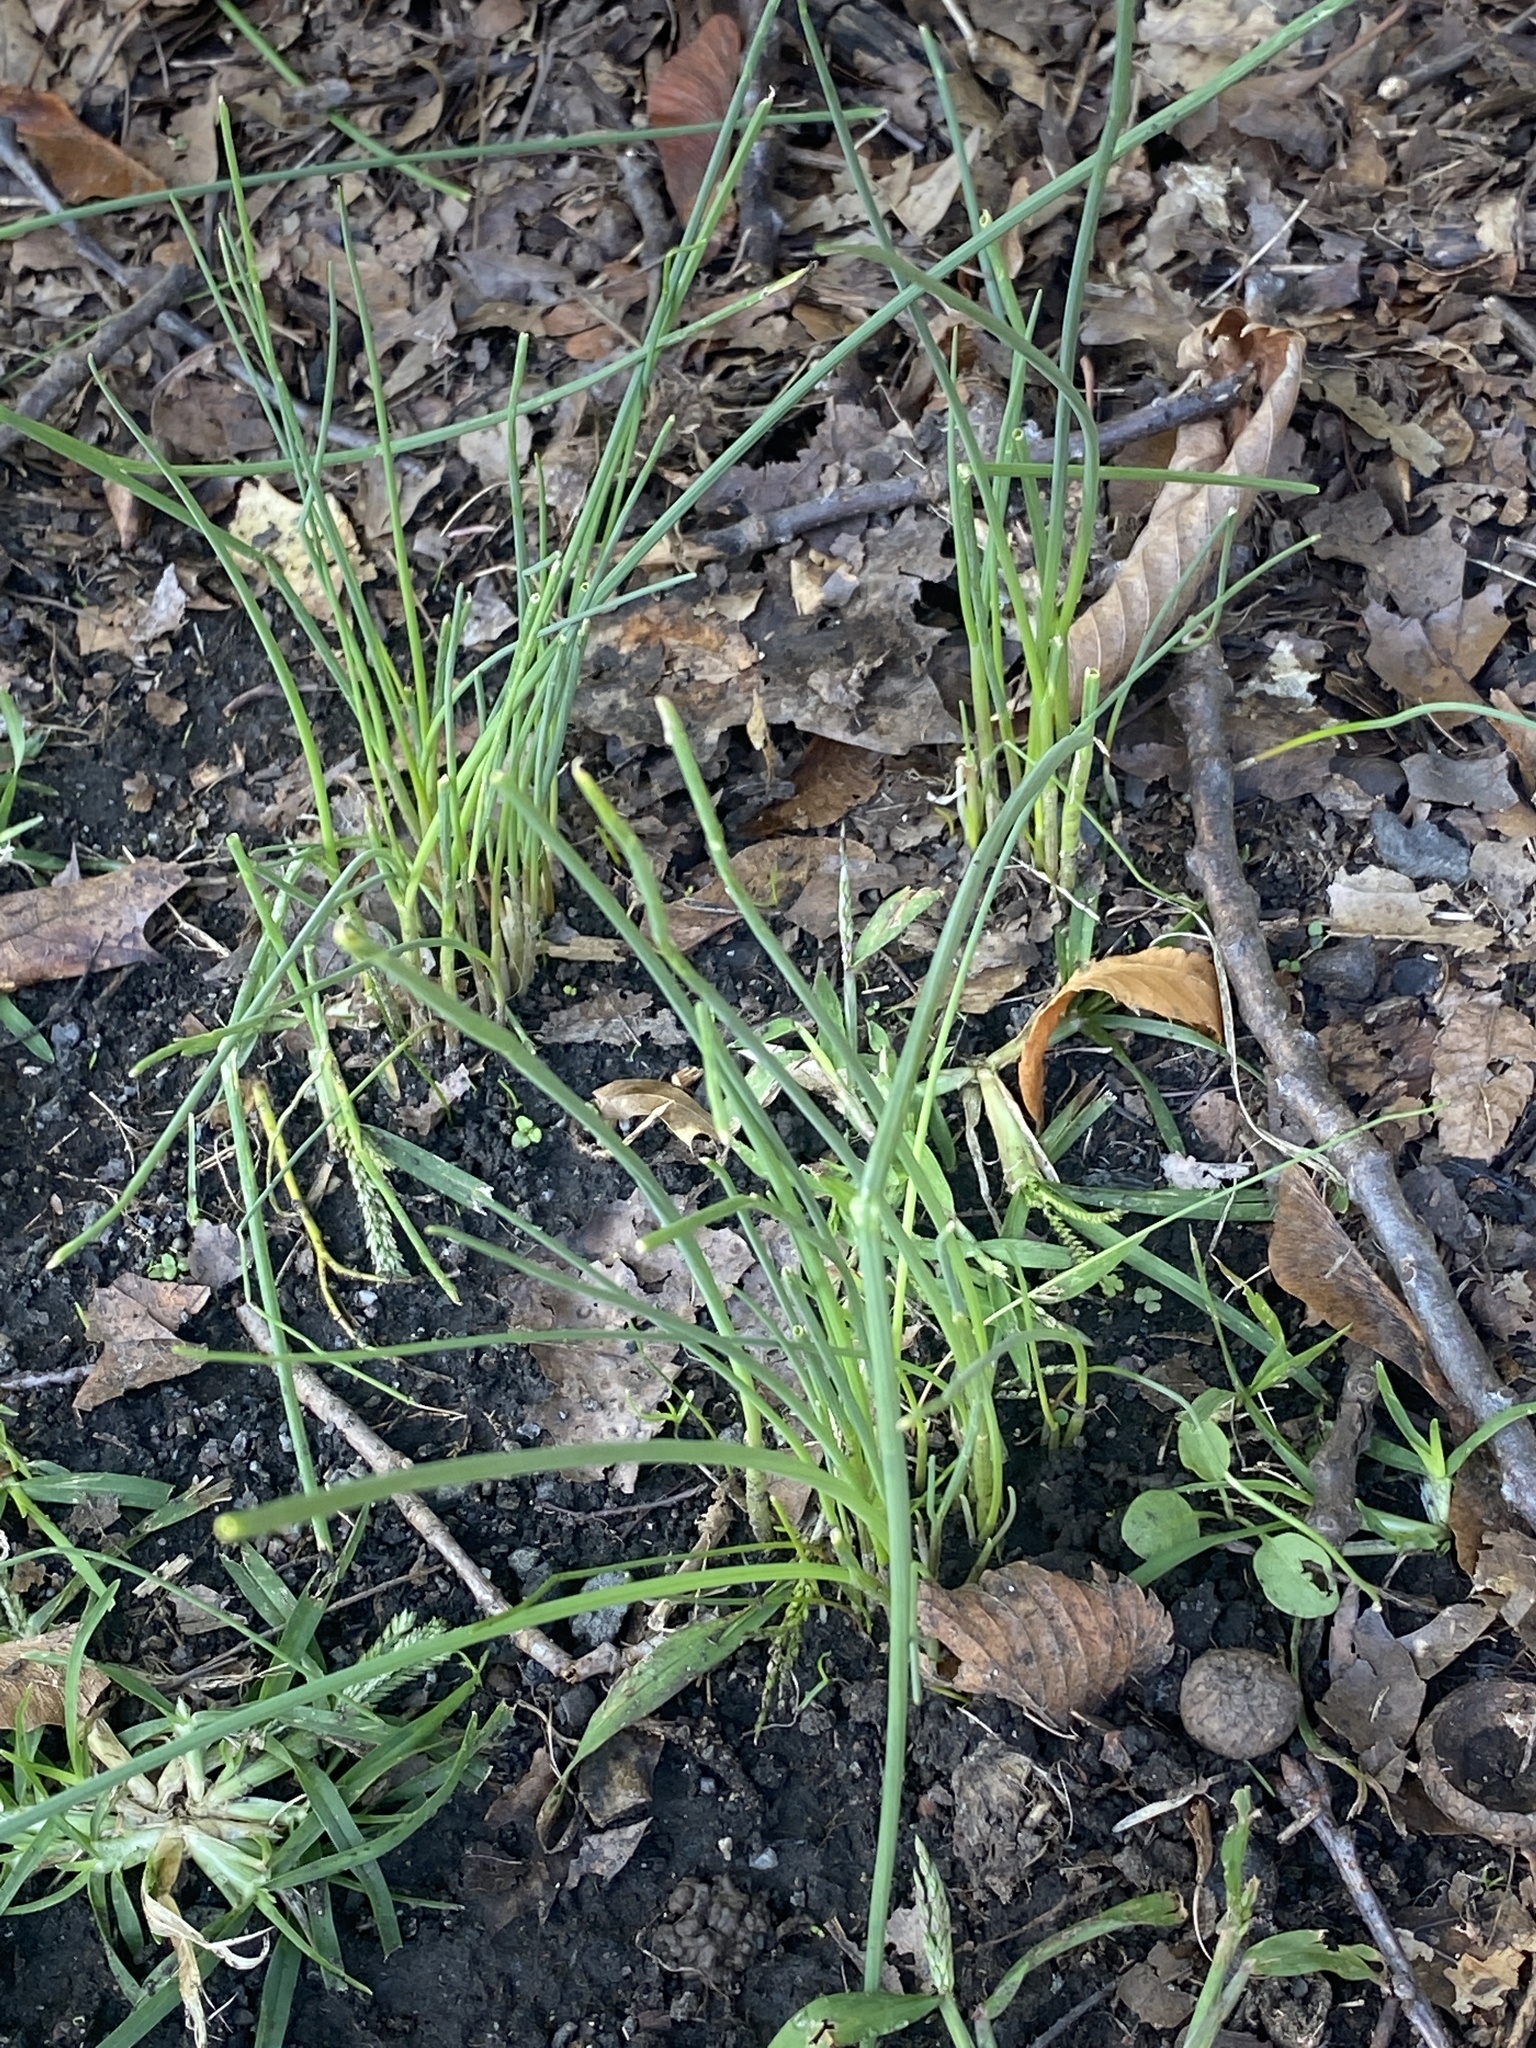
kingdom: Plantae
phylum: Tracheophyta
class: Liliopsida
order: Asparagales
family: Amaryllidaceae
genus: Allium
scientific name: Allium vineale
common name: Crow garlic
